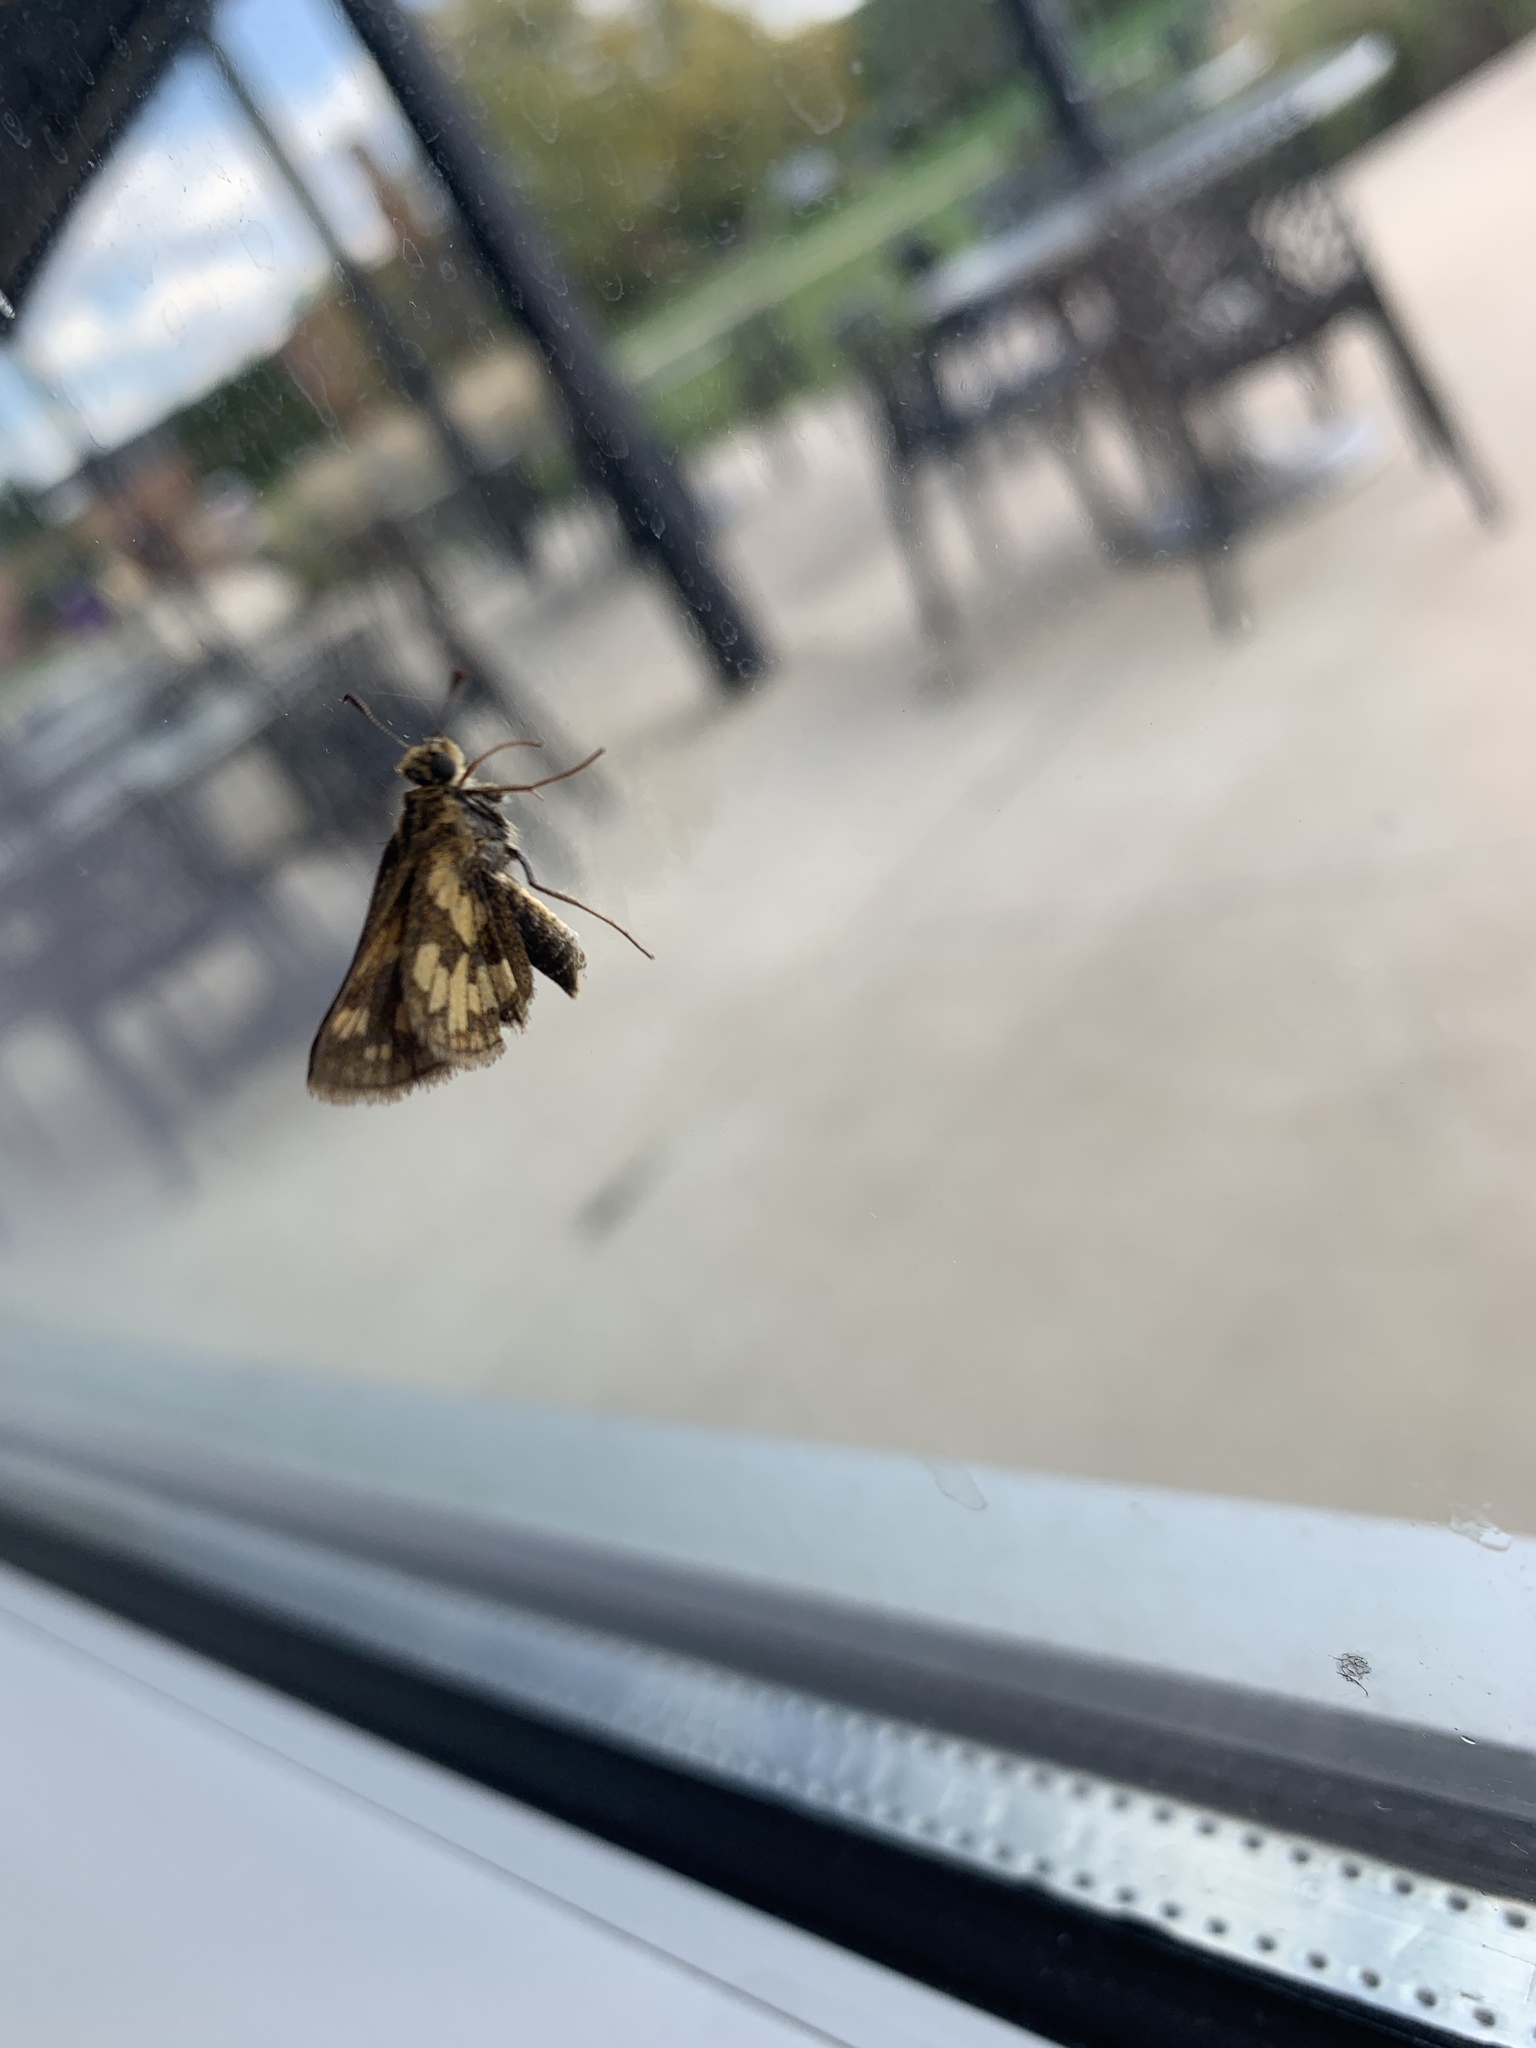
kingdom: Animalia
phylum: Arthropoda
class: Insecta
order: Lepidoptera
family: Hesperiidae
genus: Polites
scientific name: Polites coras
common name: Peck's skipper
